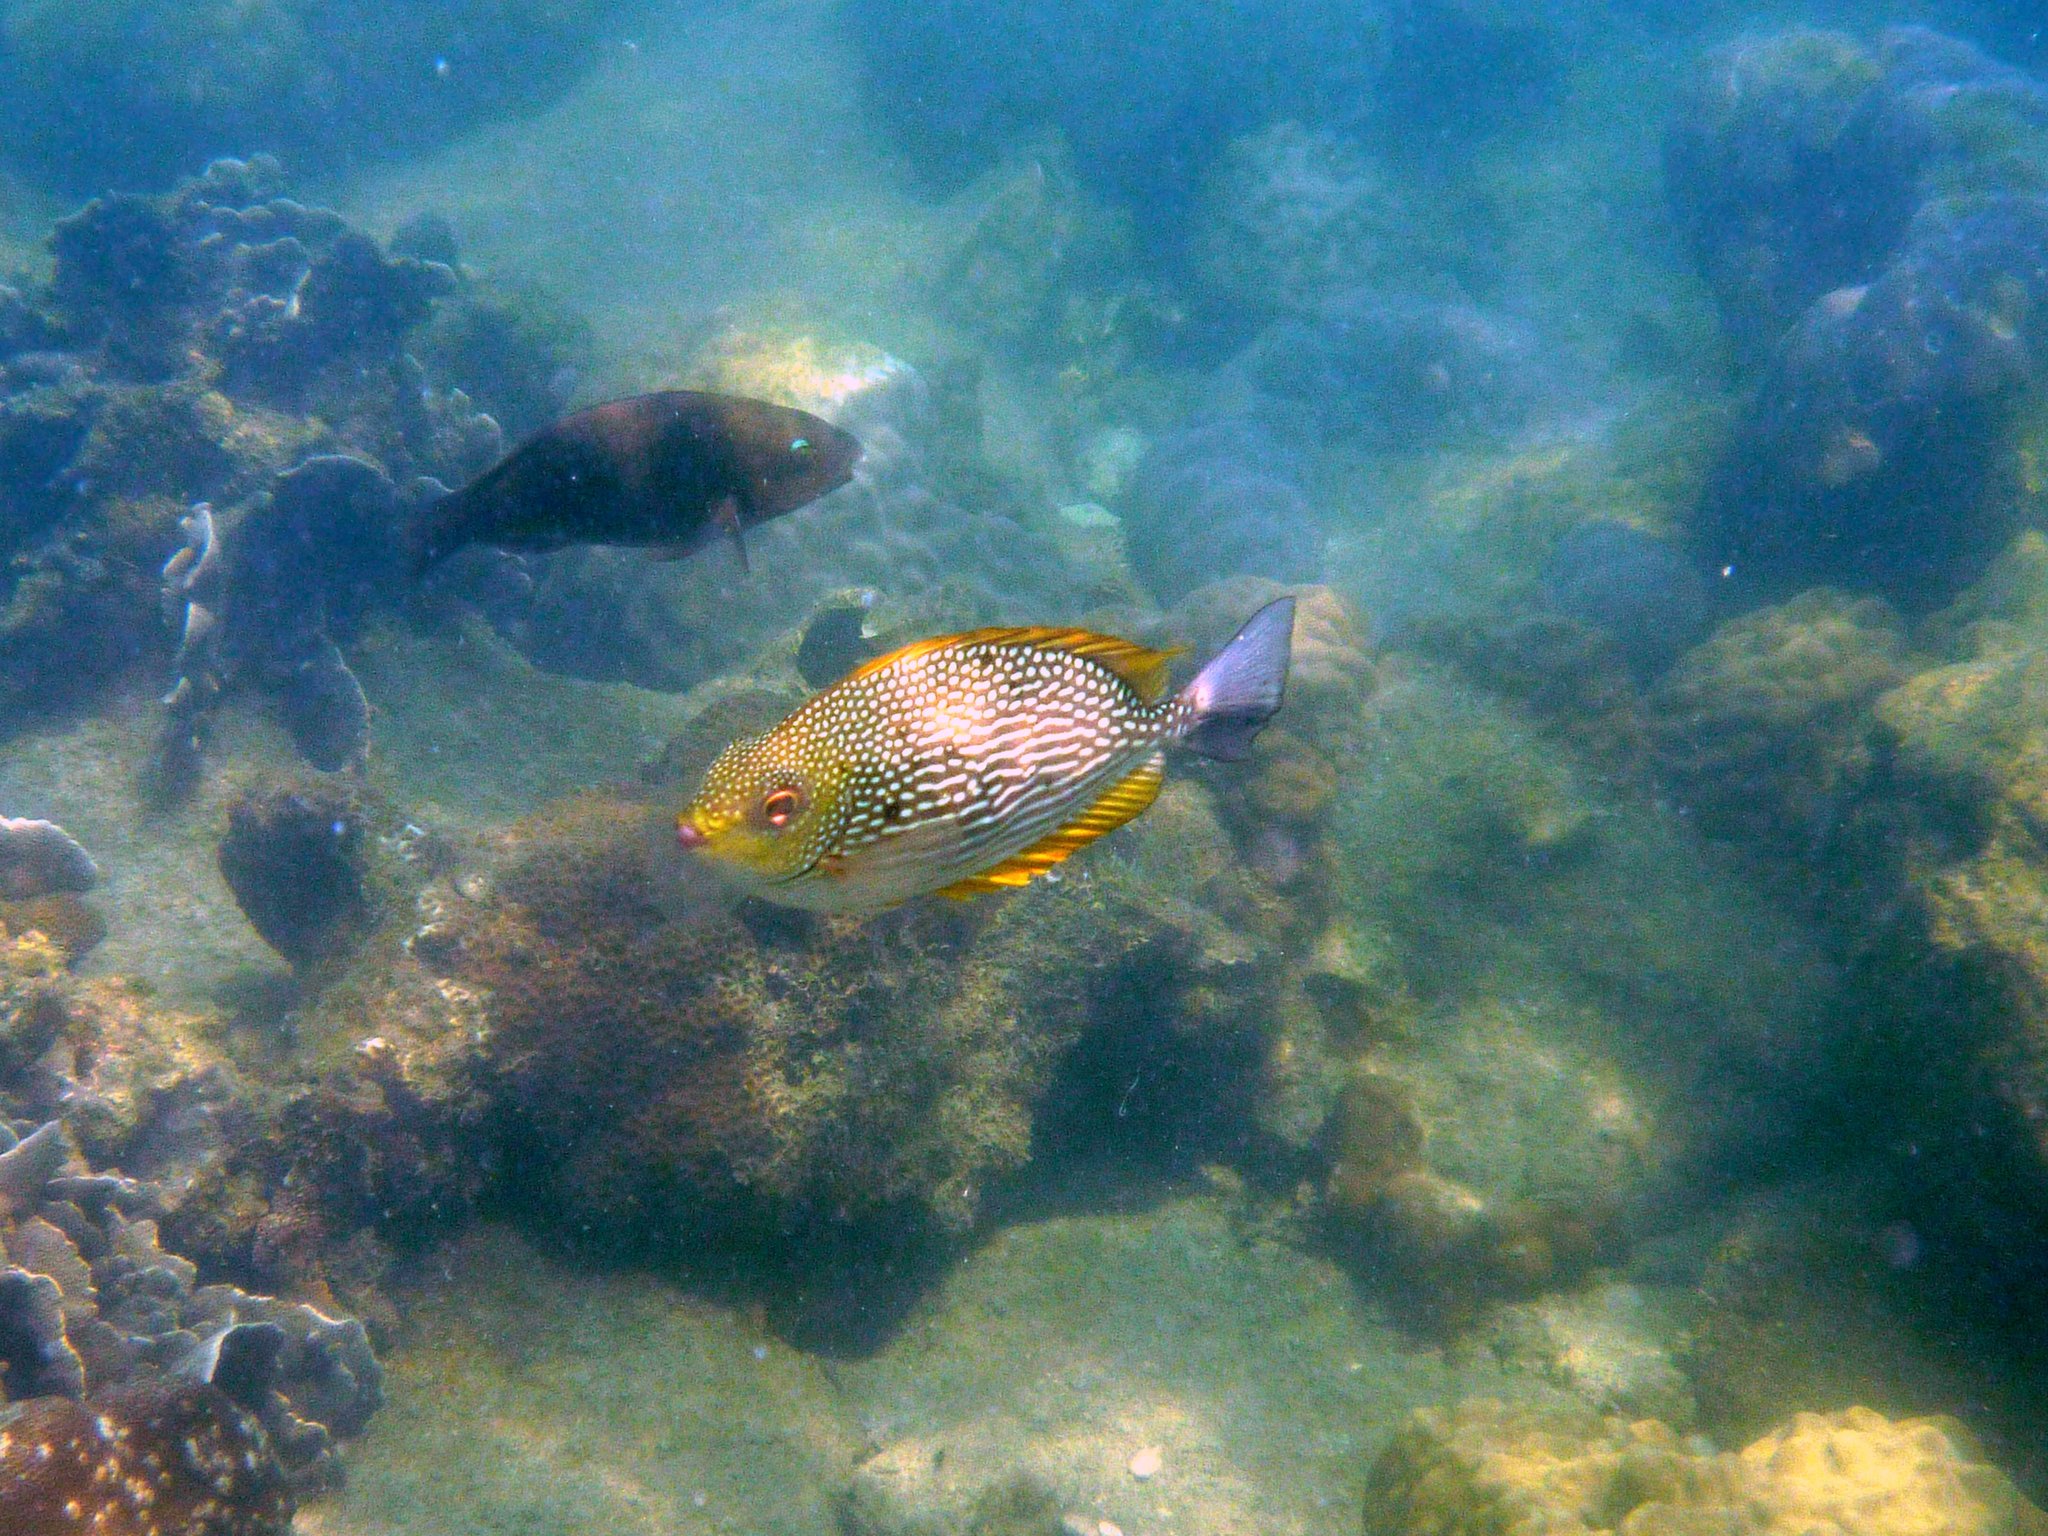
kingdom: Animalia
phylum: Chordata
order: Perciformes
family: Siganidae
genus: Siganus
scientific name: Siganus javus
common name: Java rabbitfish
